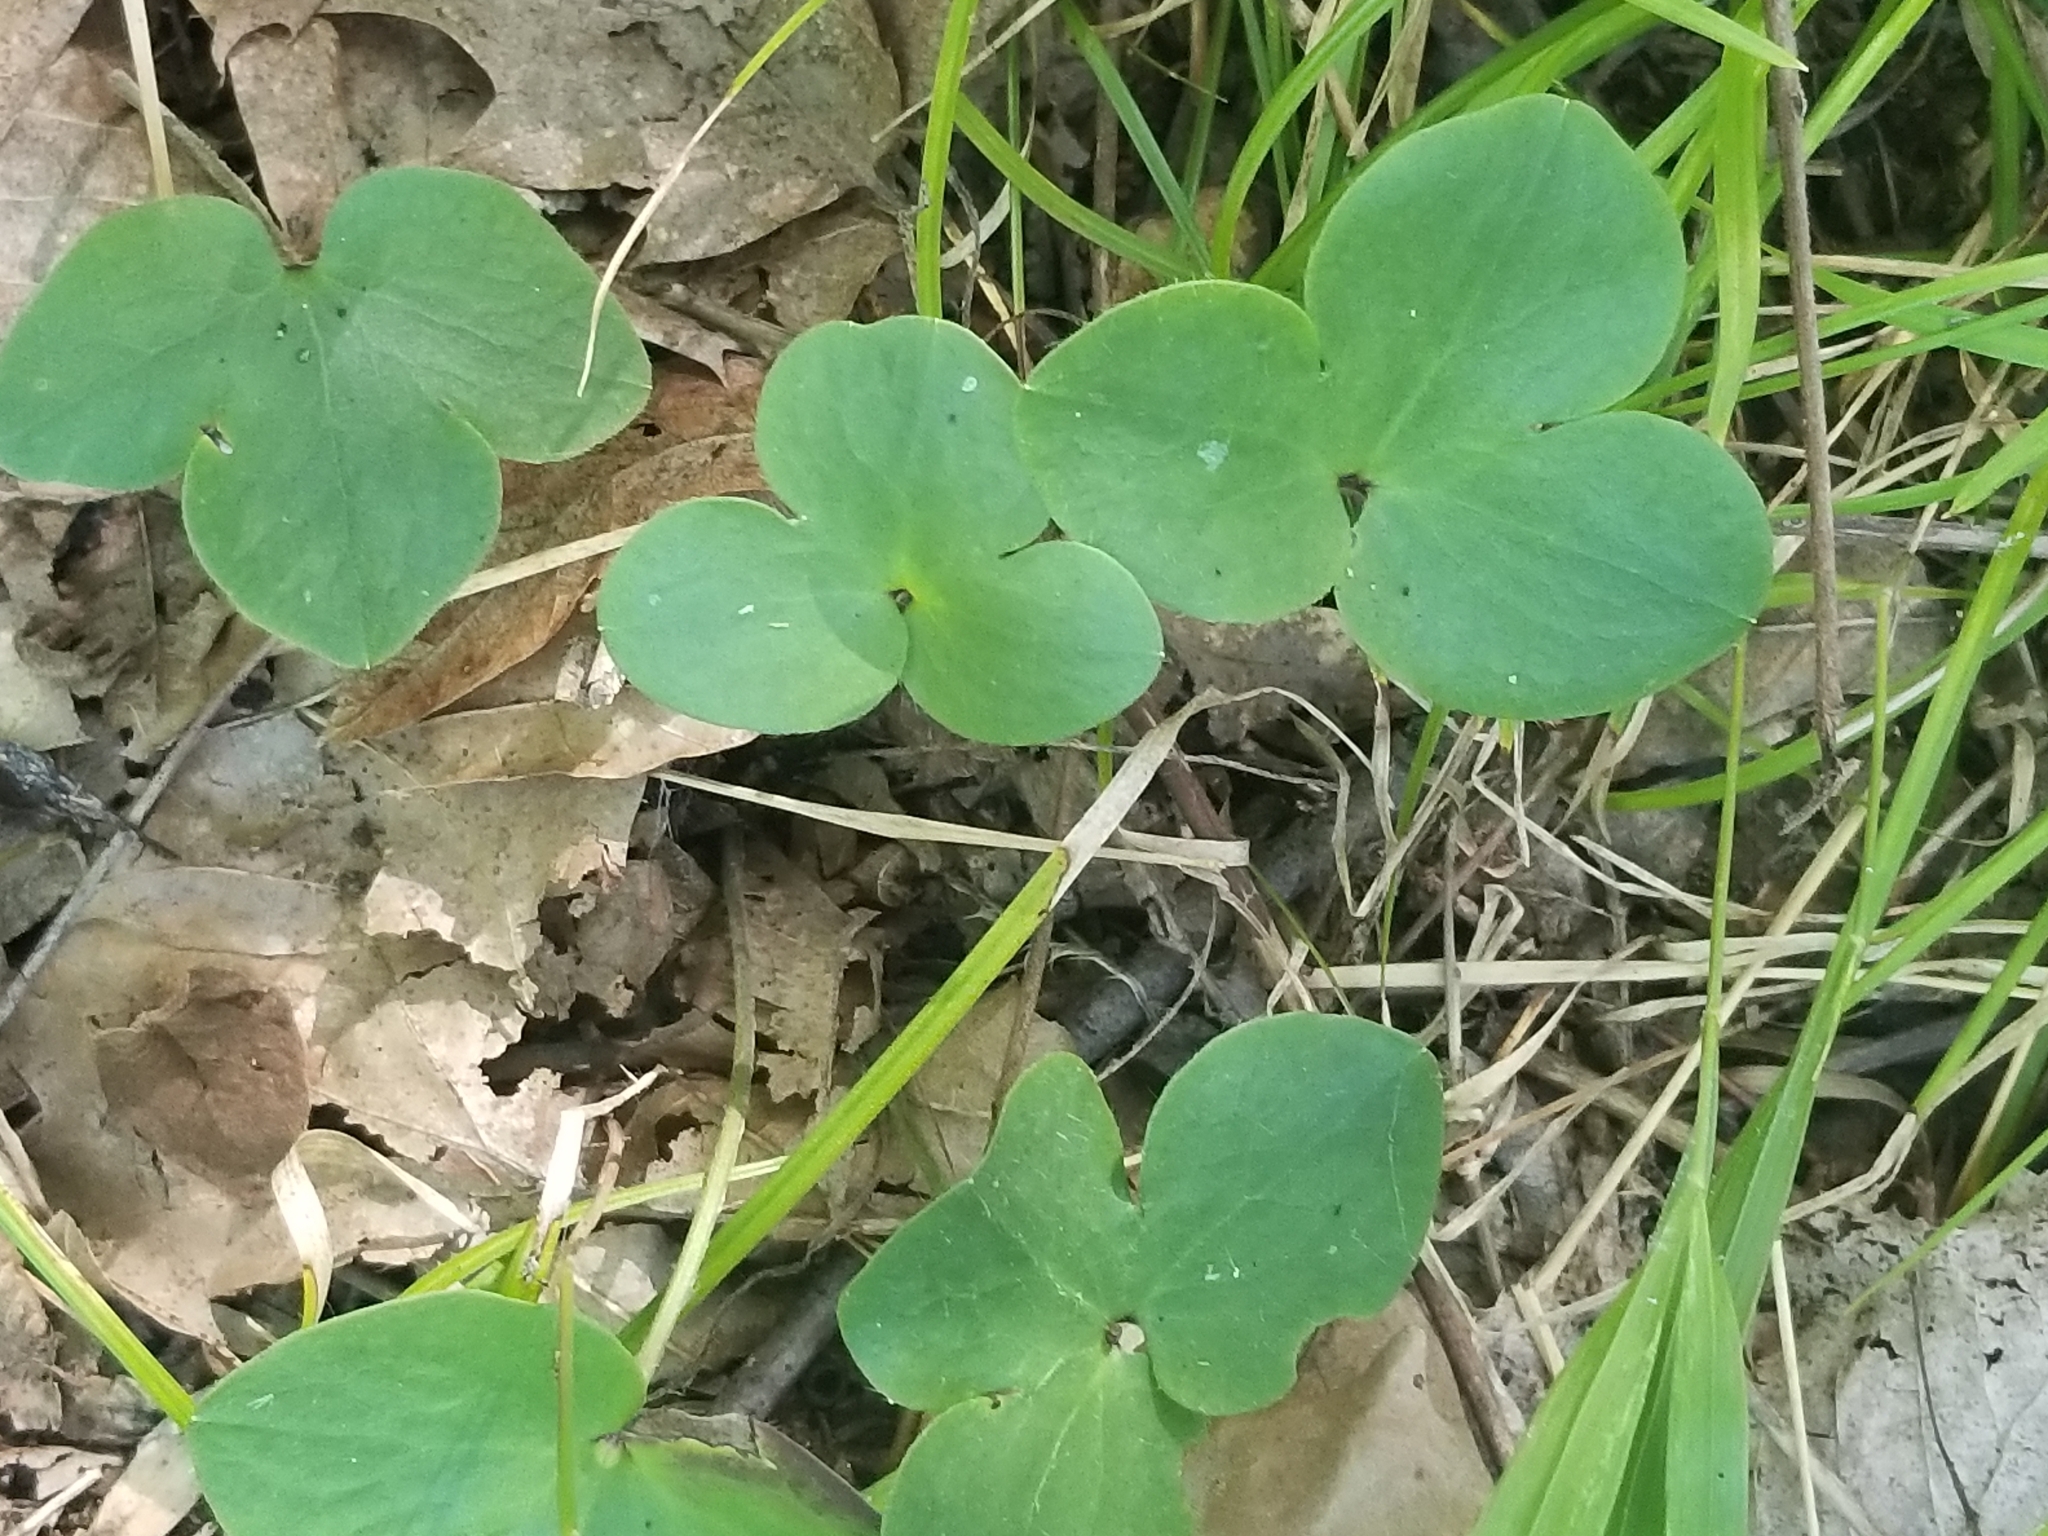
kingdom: Plantae
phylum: Tracheophyta
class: Magnoliopsida
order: Ranunculales
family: Ranunculaceae
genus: Hepatica
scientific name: Hepatica americana
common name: American hepatica
